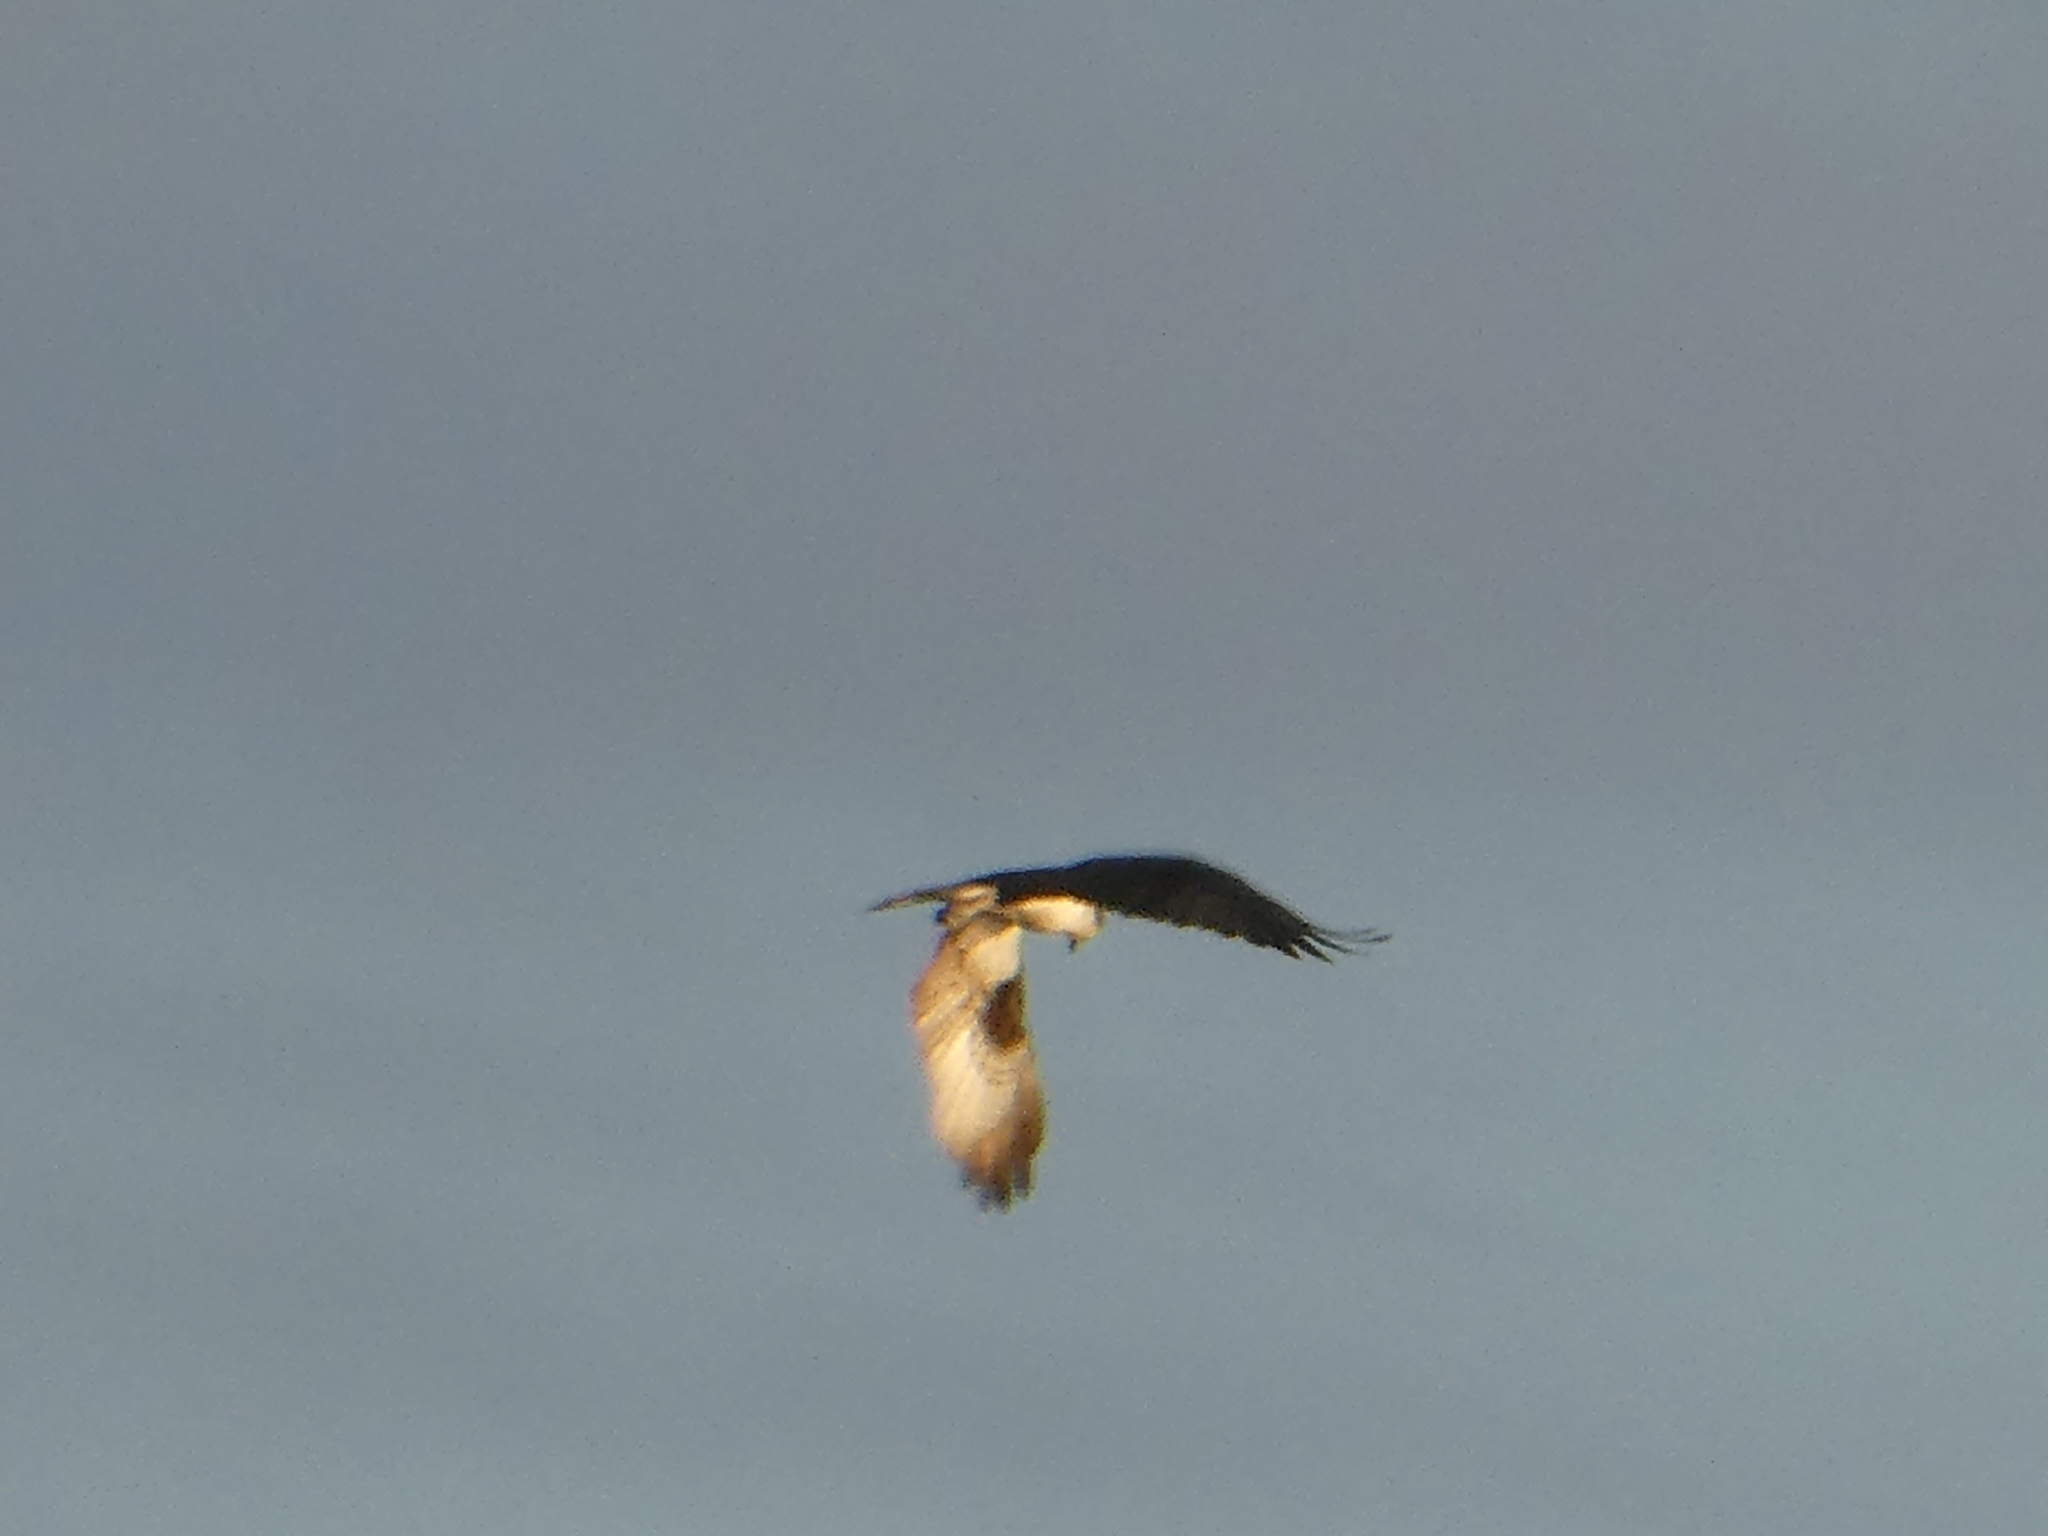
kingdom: Animalia
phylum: Chordata
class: Aves
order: Accipitriformes
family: Pandionidae
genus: Pandion
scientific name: Pandion haliaetus
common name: Osprey
